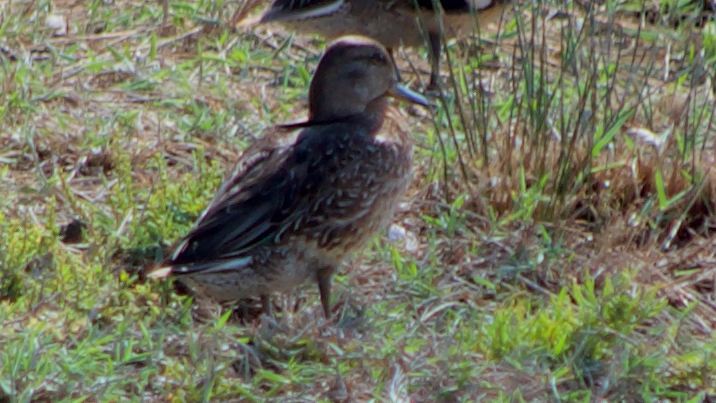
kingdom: Animalia
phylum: Chordata
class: Aves
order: Anseriformes
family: Anatidae
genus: Anas
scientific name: Anas crecca
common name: Eurasian teal
